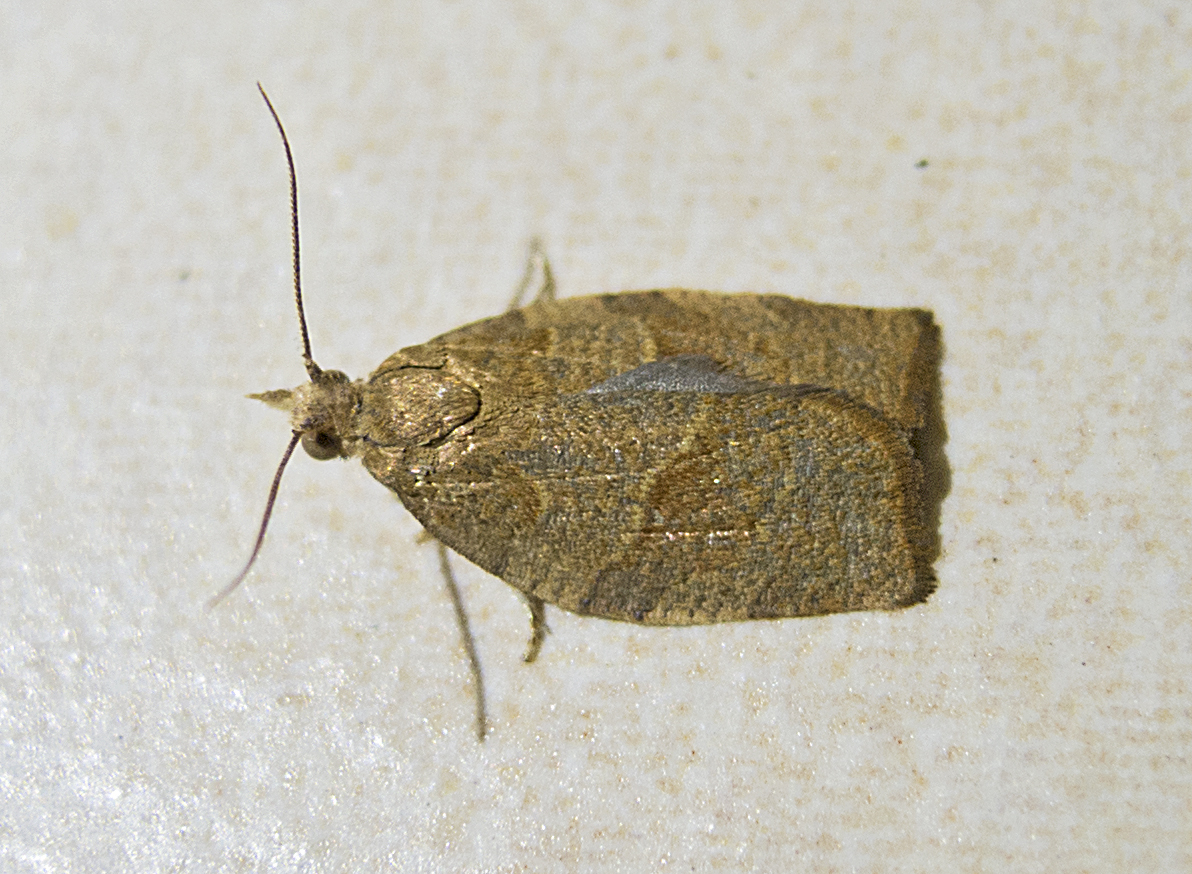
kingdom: Animalia
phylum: Arthropoda
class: Insecta
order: Lepidoptera
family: Tortricidae
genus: Pandemis
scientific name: Pandemis heparana
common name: Dark fruit-tree tortrix
